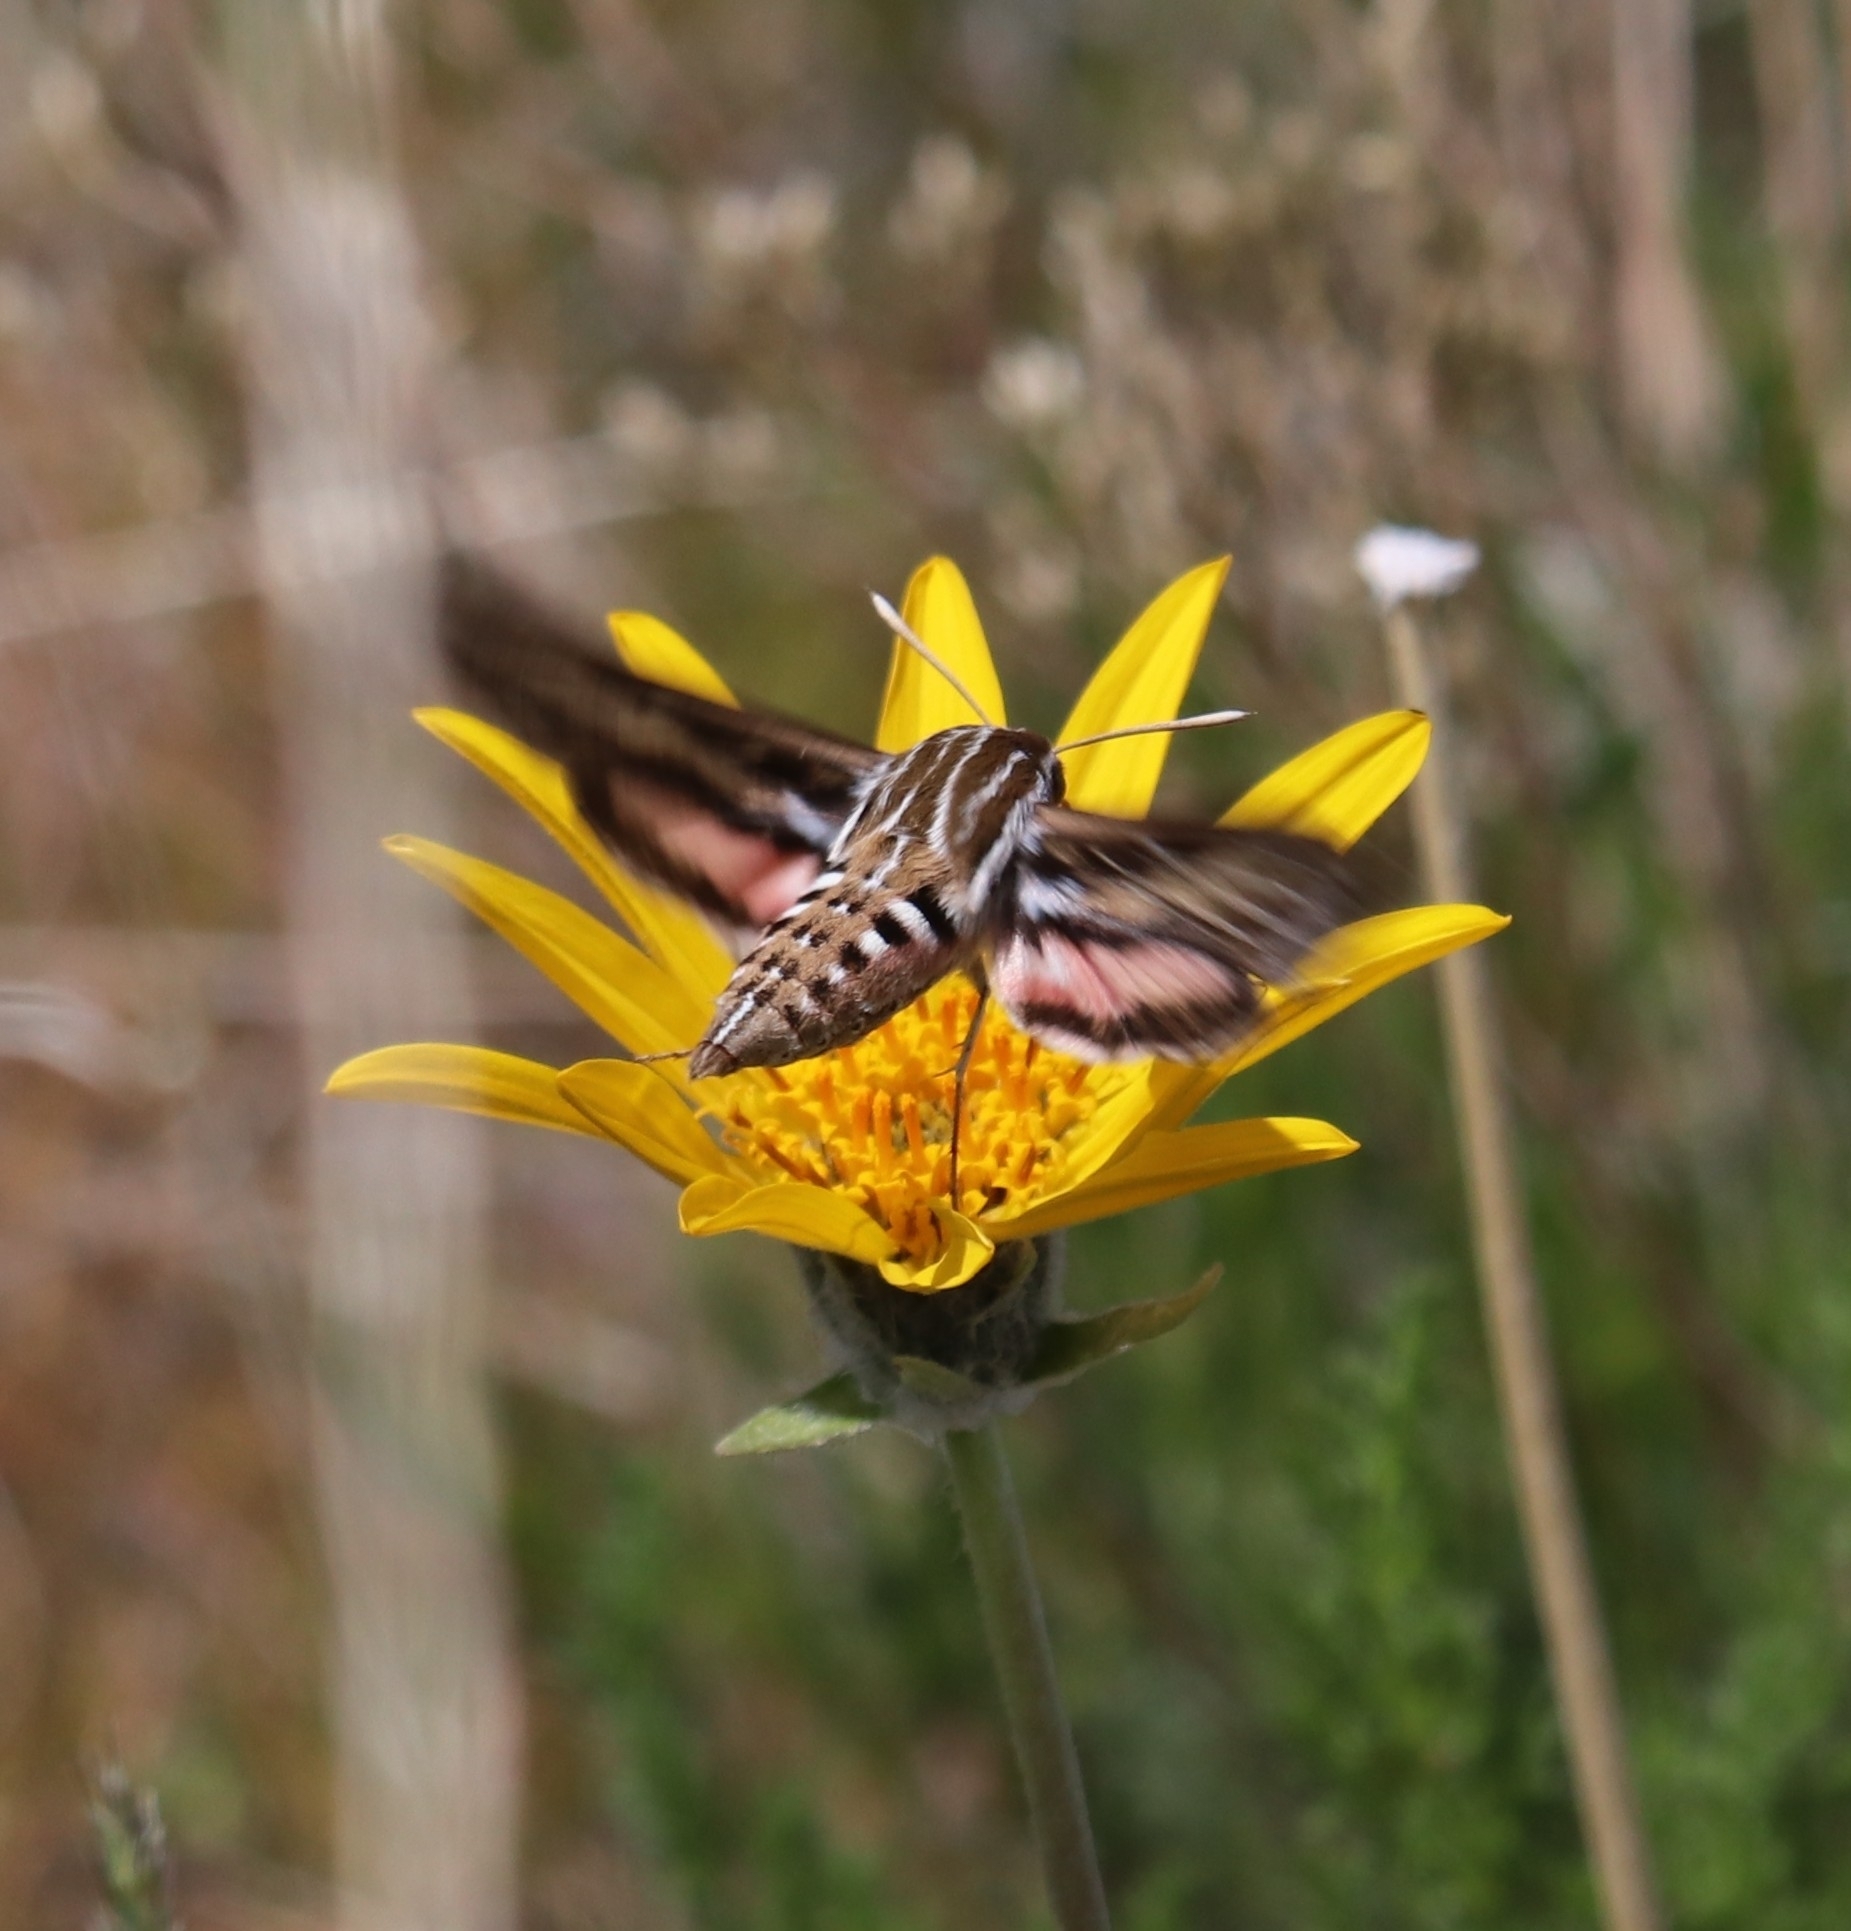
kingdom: Animalia
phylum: Arthropoda
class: Insecta
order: Lepidoptera
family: Sphingidae
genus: Hyles
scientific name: Hyles lineata
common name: White-lined sphinx
